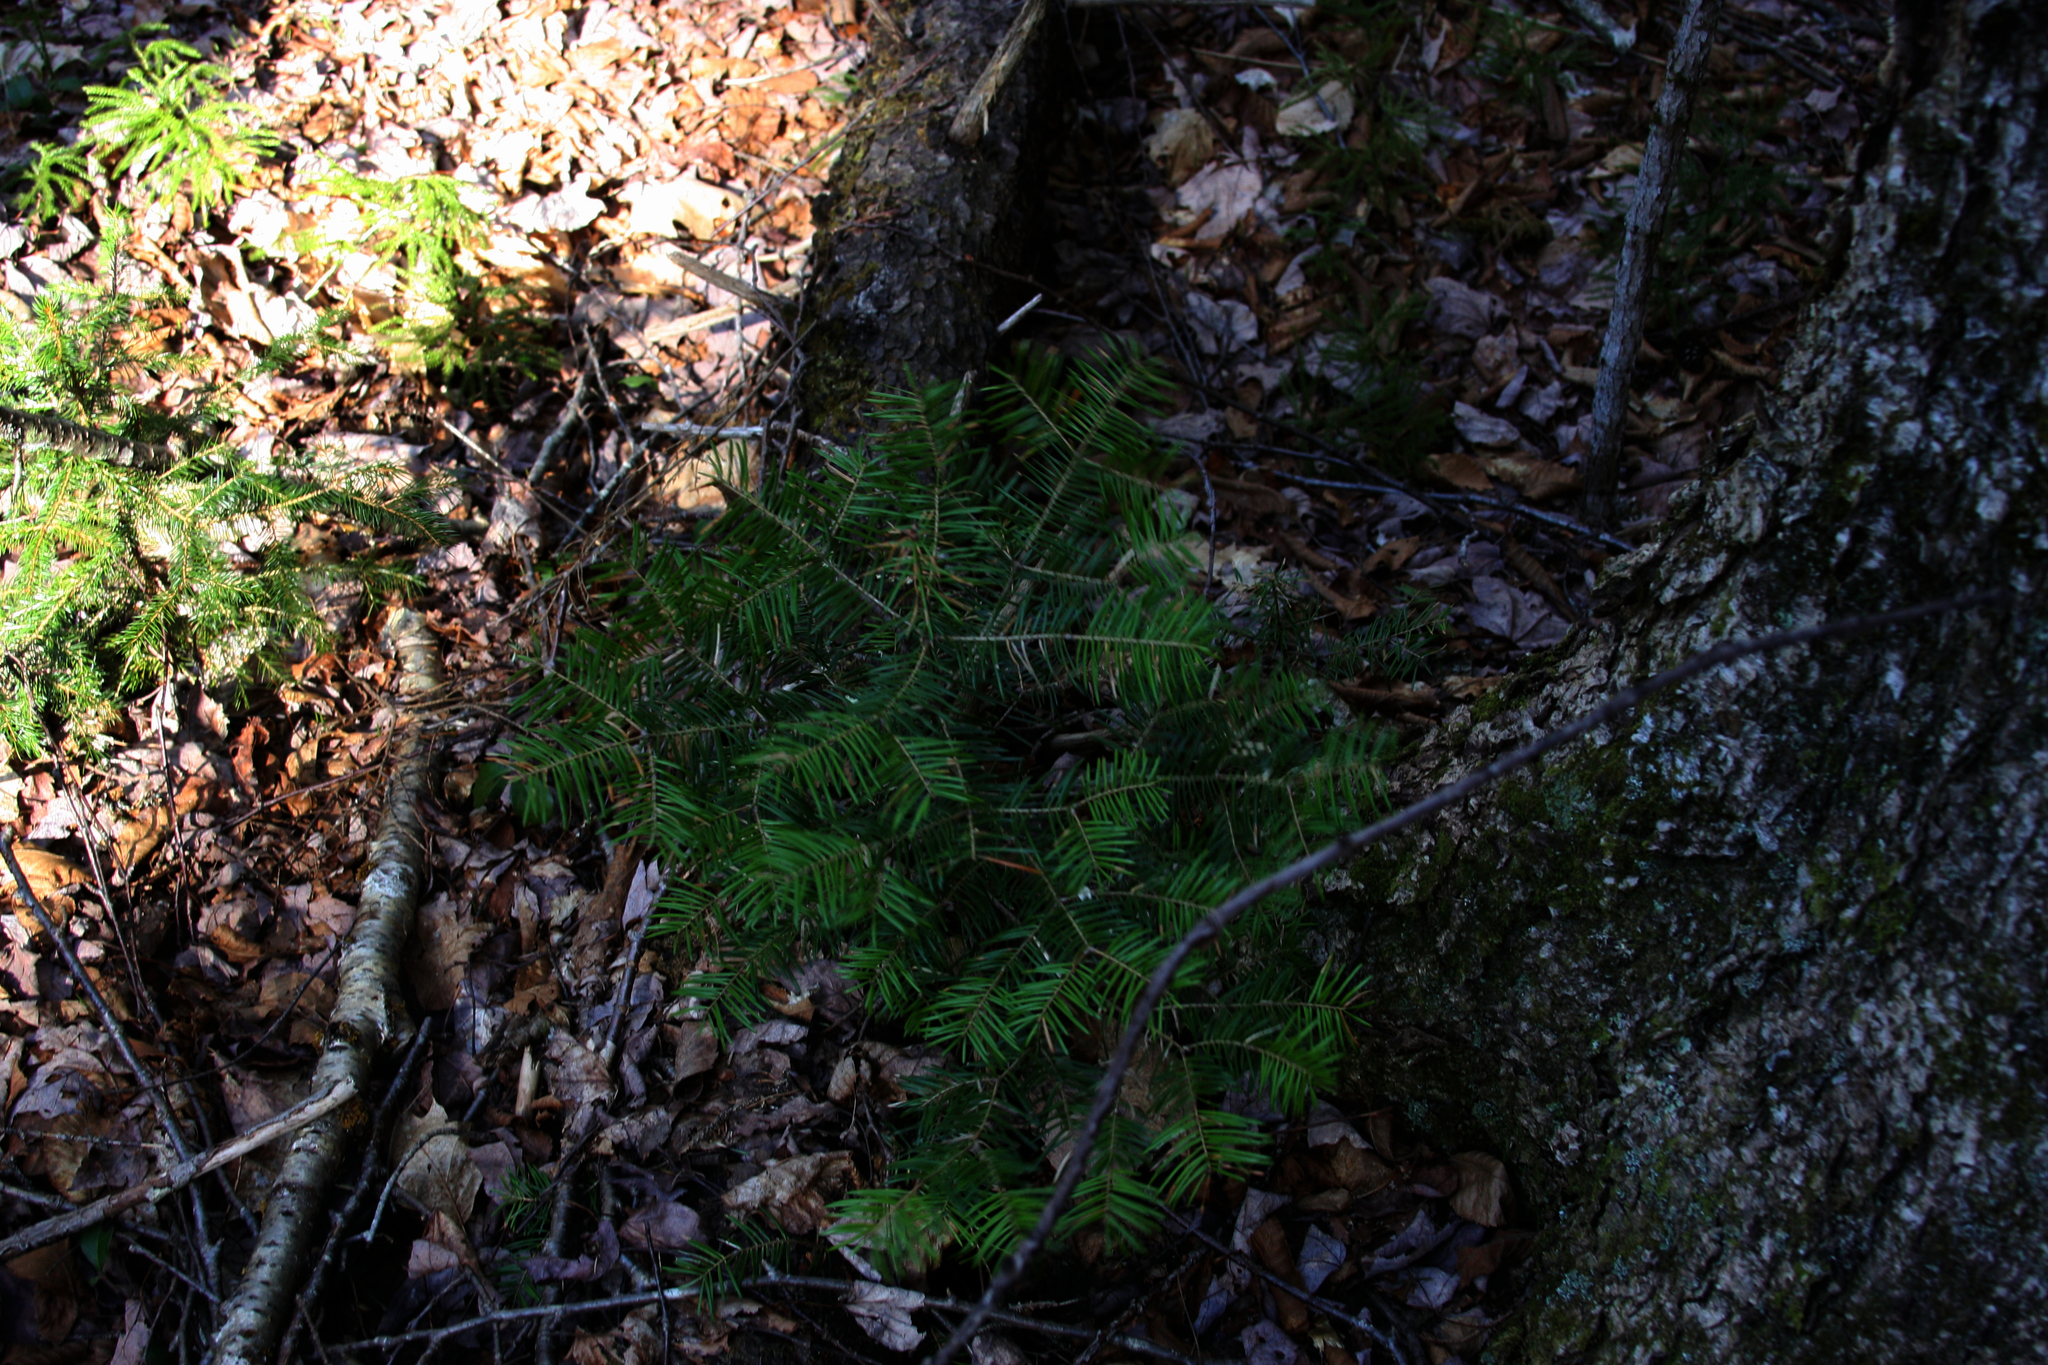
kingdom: Plantae
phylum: Tracheophyta
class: Pinopsida
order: Pinales
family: Pinaceae
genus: Abies
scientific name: Abies balsamea
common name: Balsam fir
